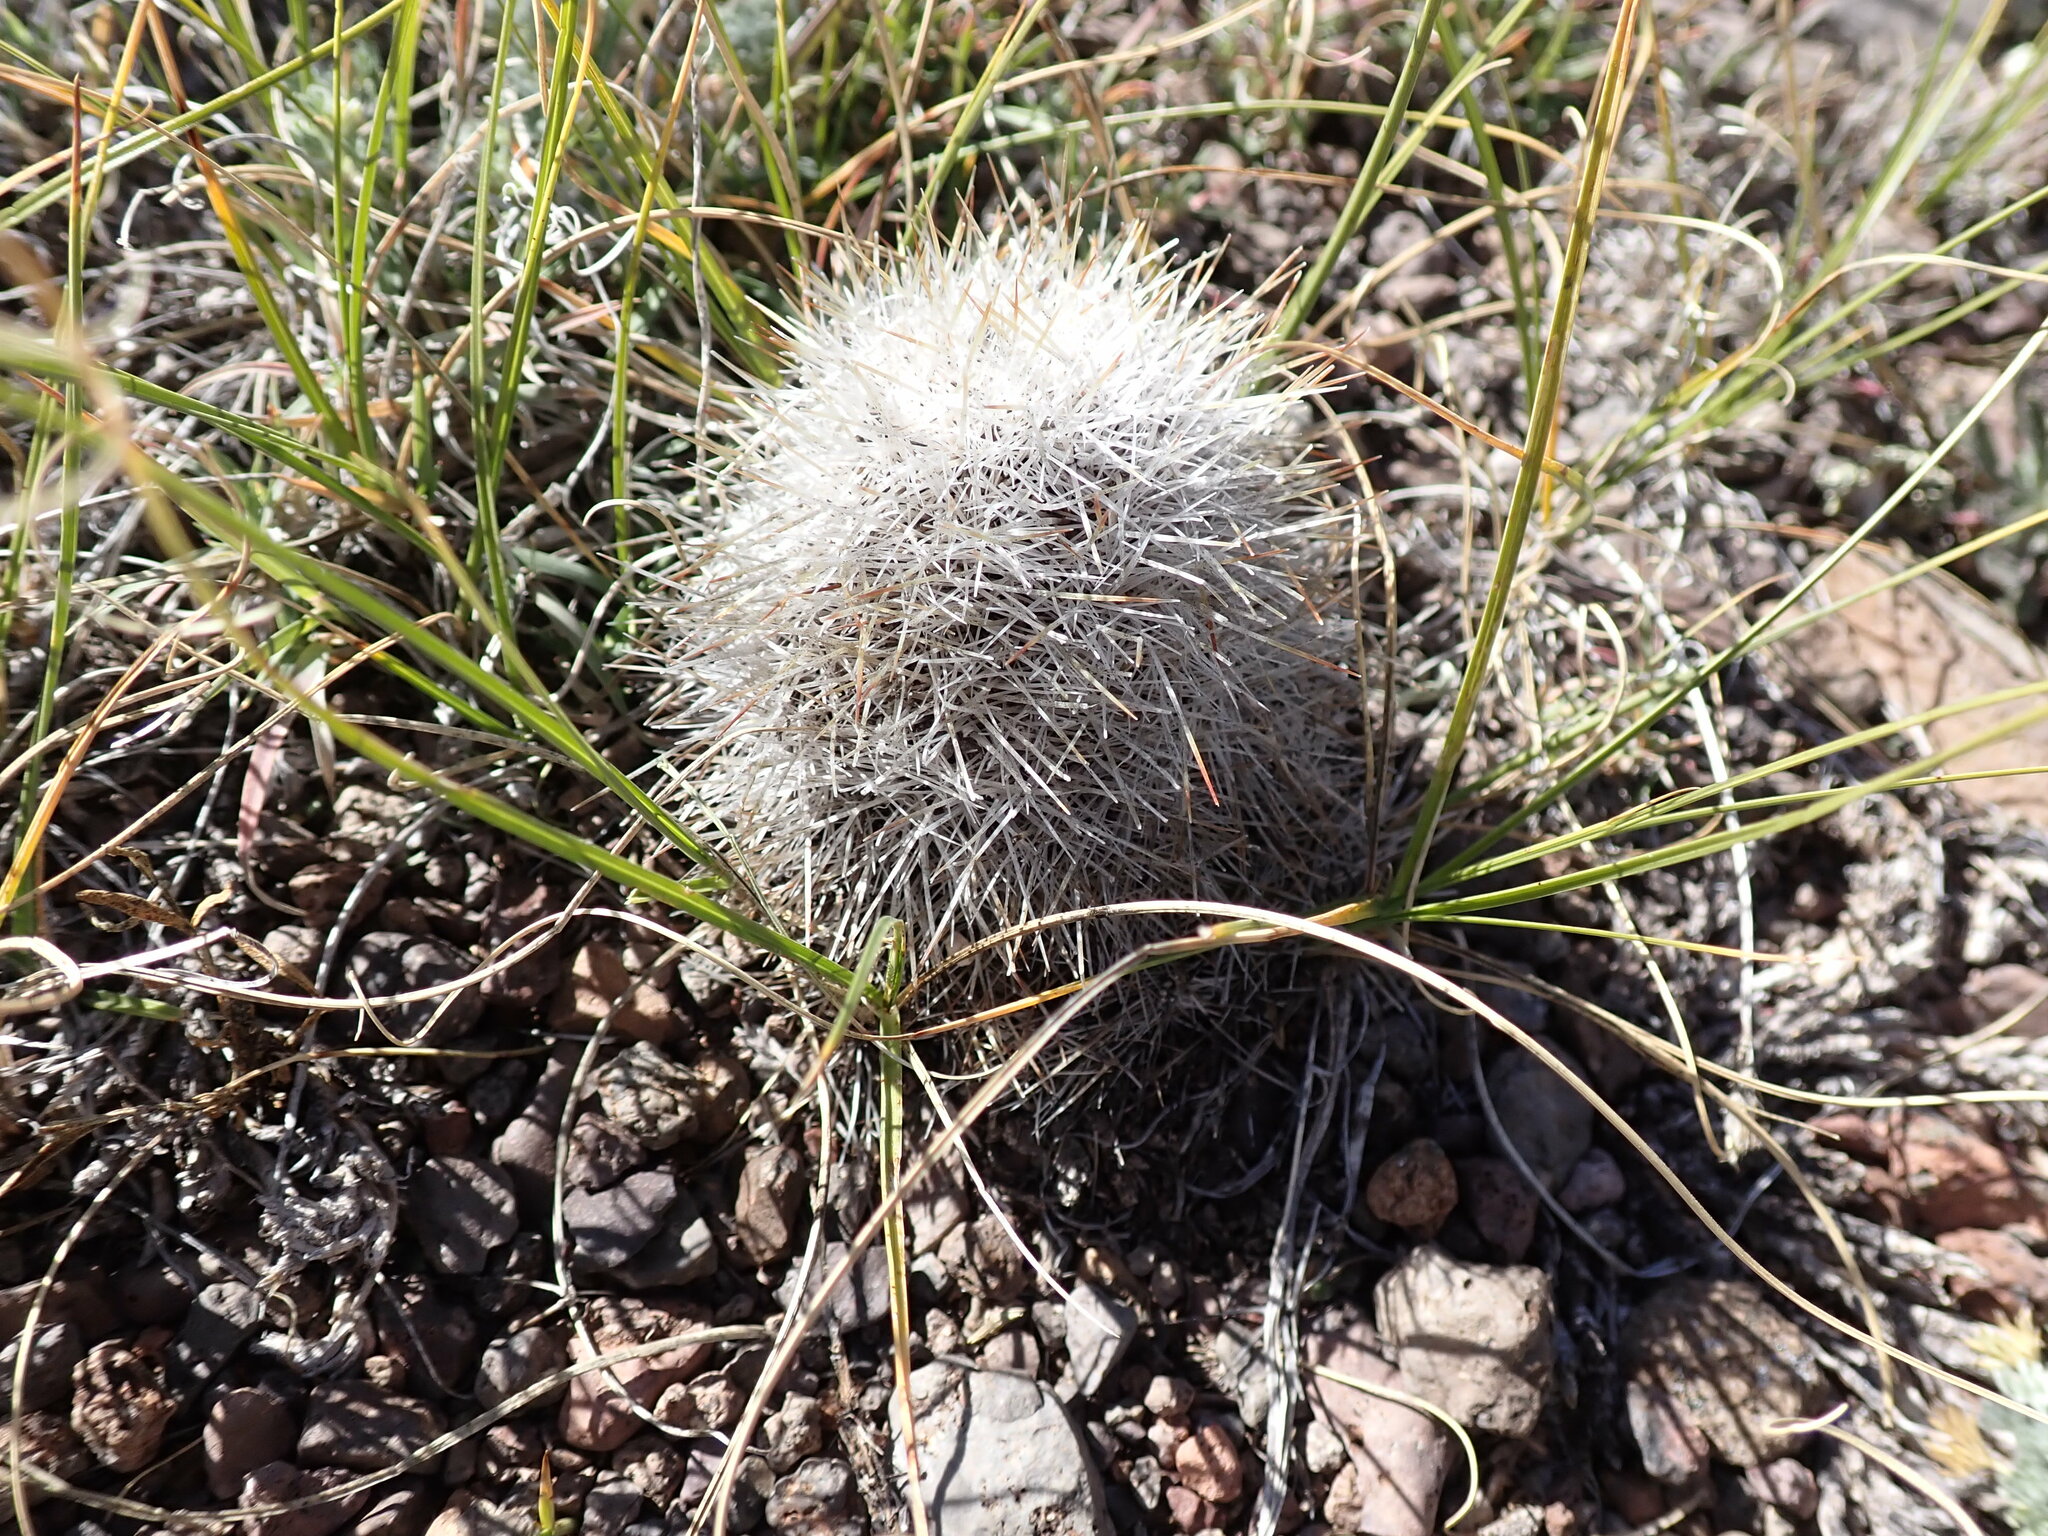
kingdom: Plantae
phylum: Tracheophyta
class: Magnoliopsida
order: Caryophyllales
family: Cactaceae
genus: Pediocactus
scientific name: Pediocactus simpsonii
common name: Simpson's hedgehog cactus
